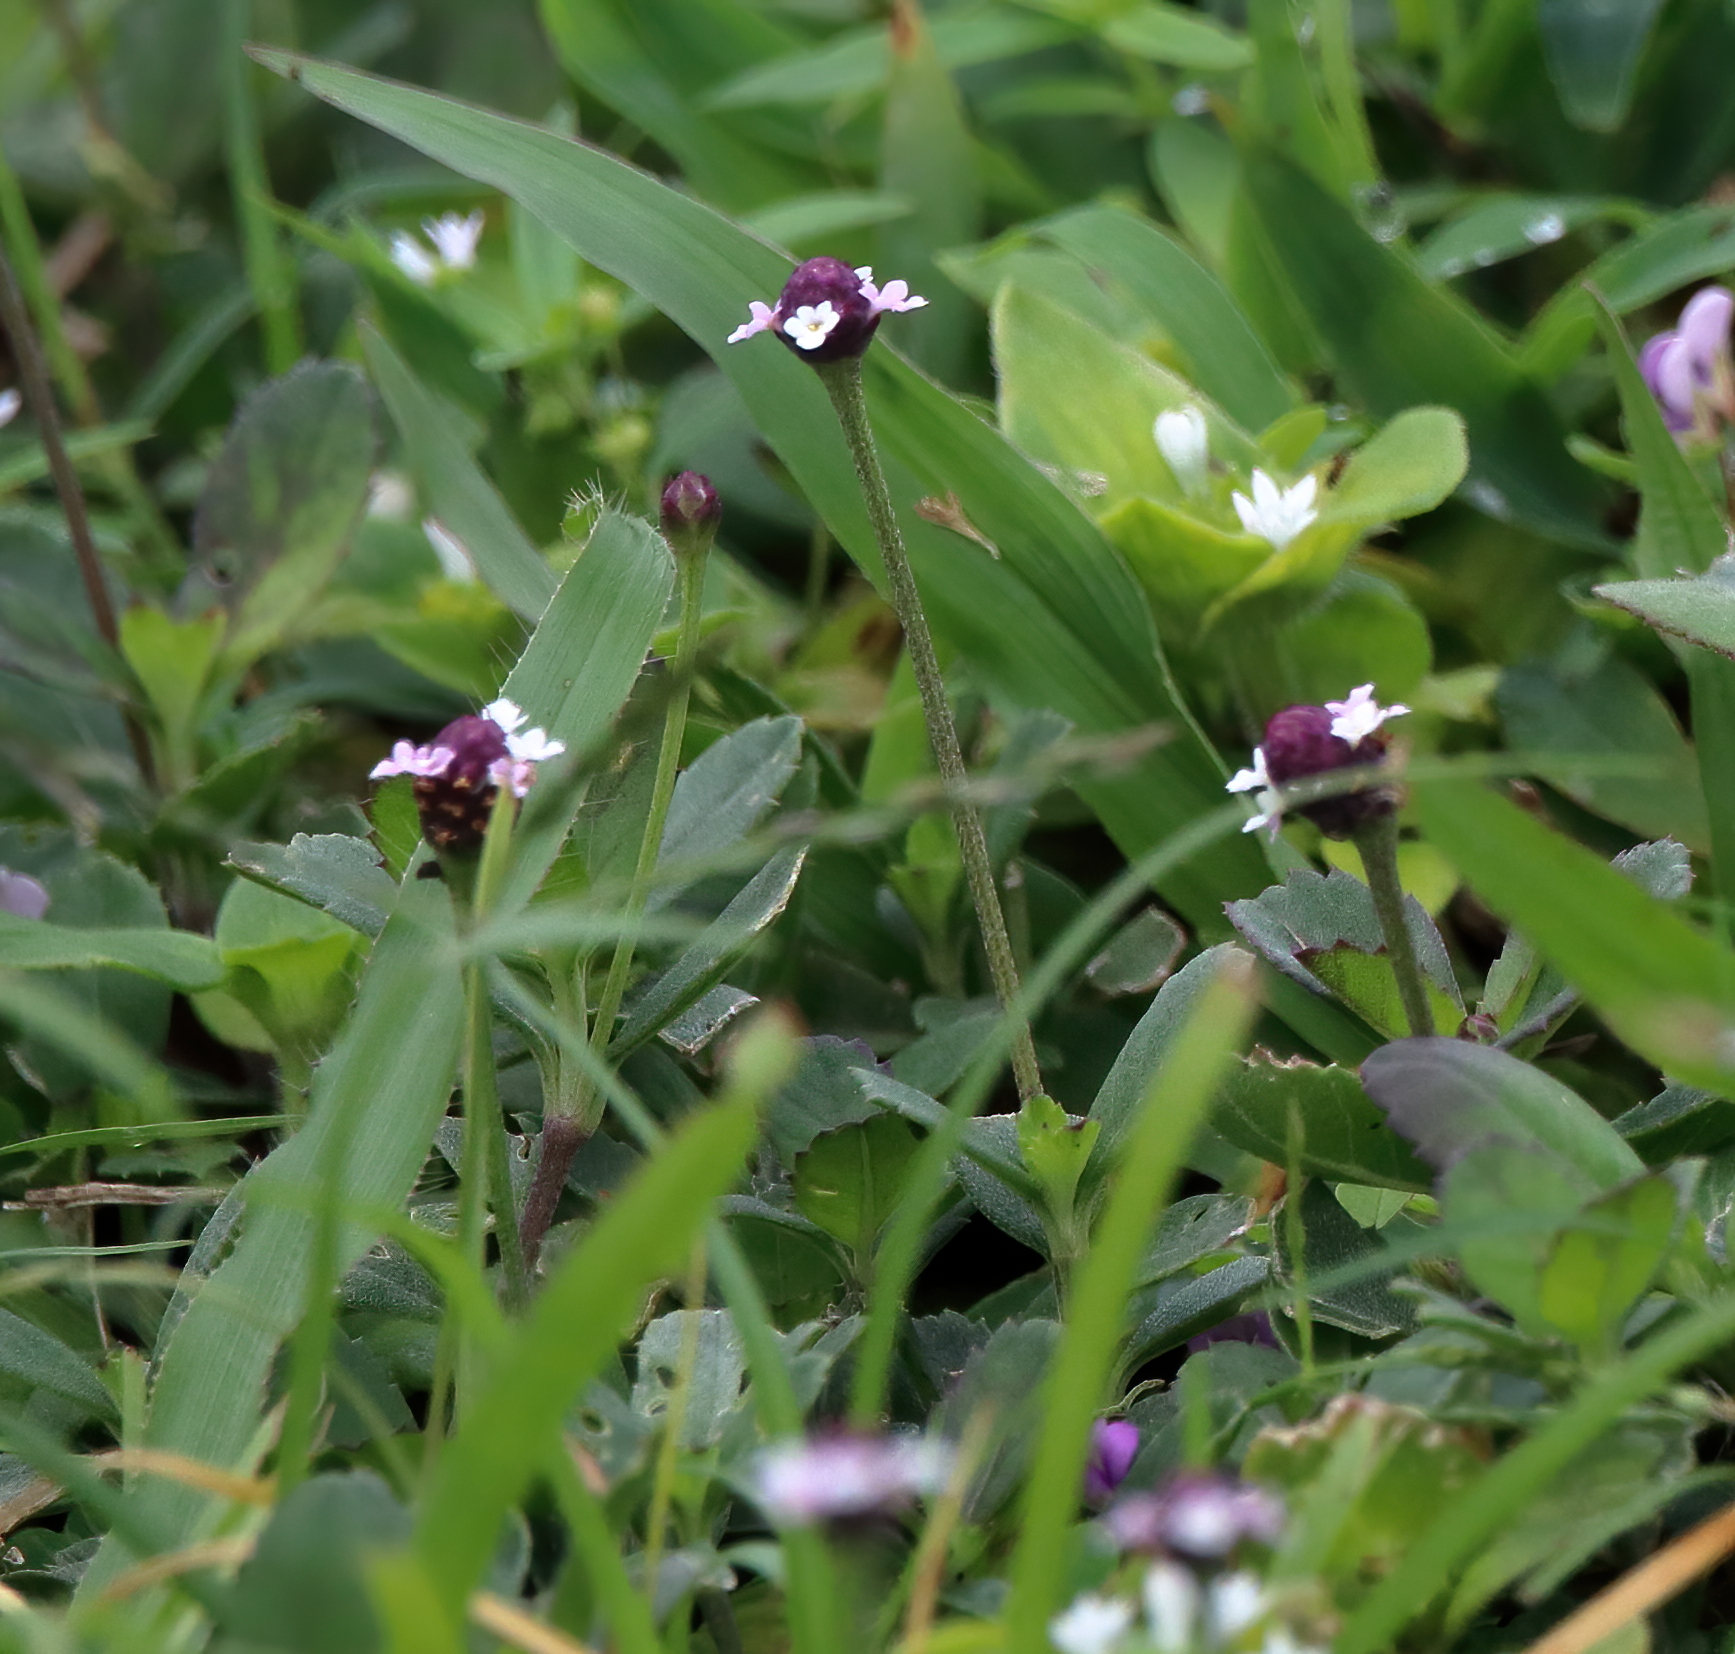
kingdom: Plantae
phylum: Tracheophyta
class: Magnoliopsida
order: Lamiales
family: Verbenaceae
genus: Phyla
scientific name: Phyla nodiflora
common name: Frogfruit
